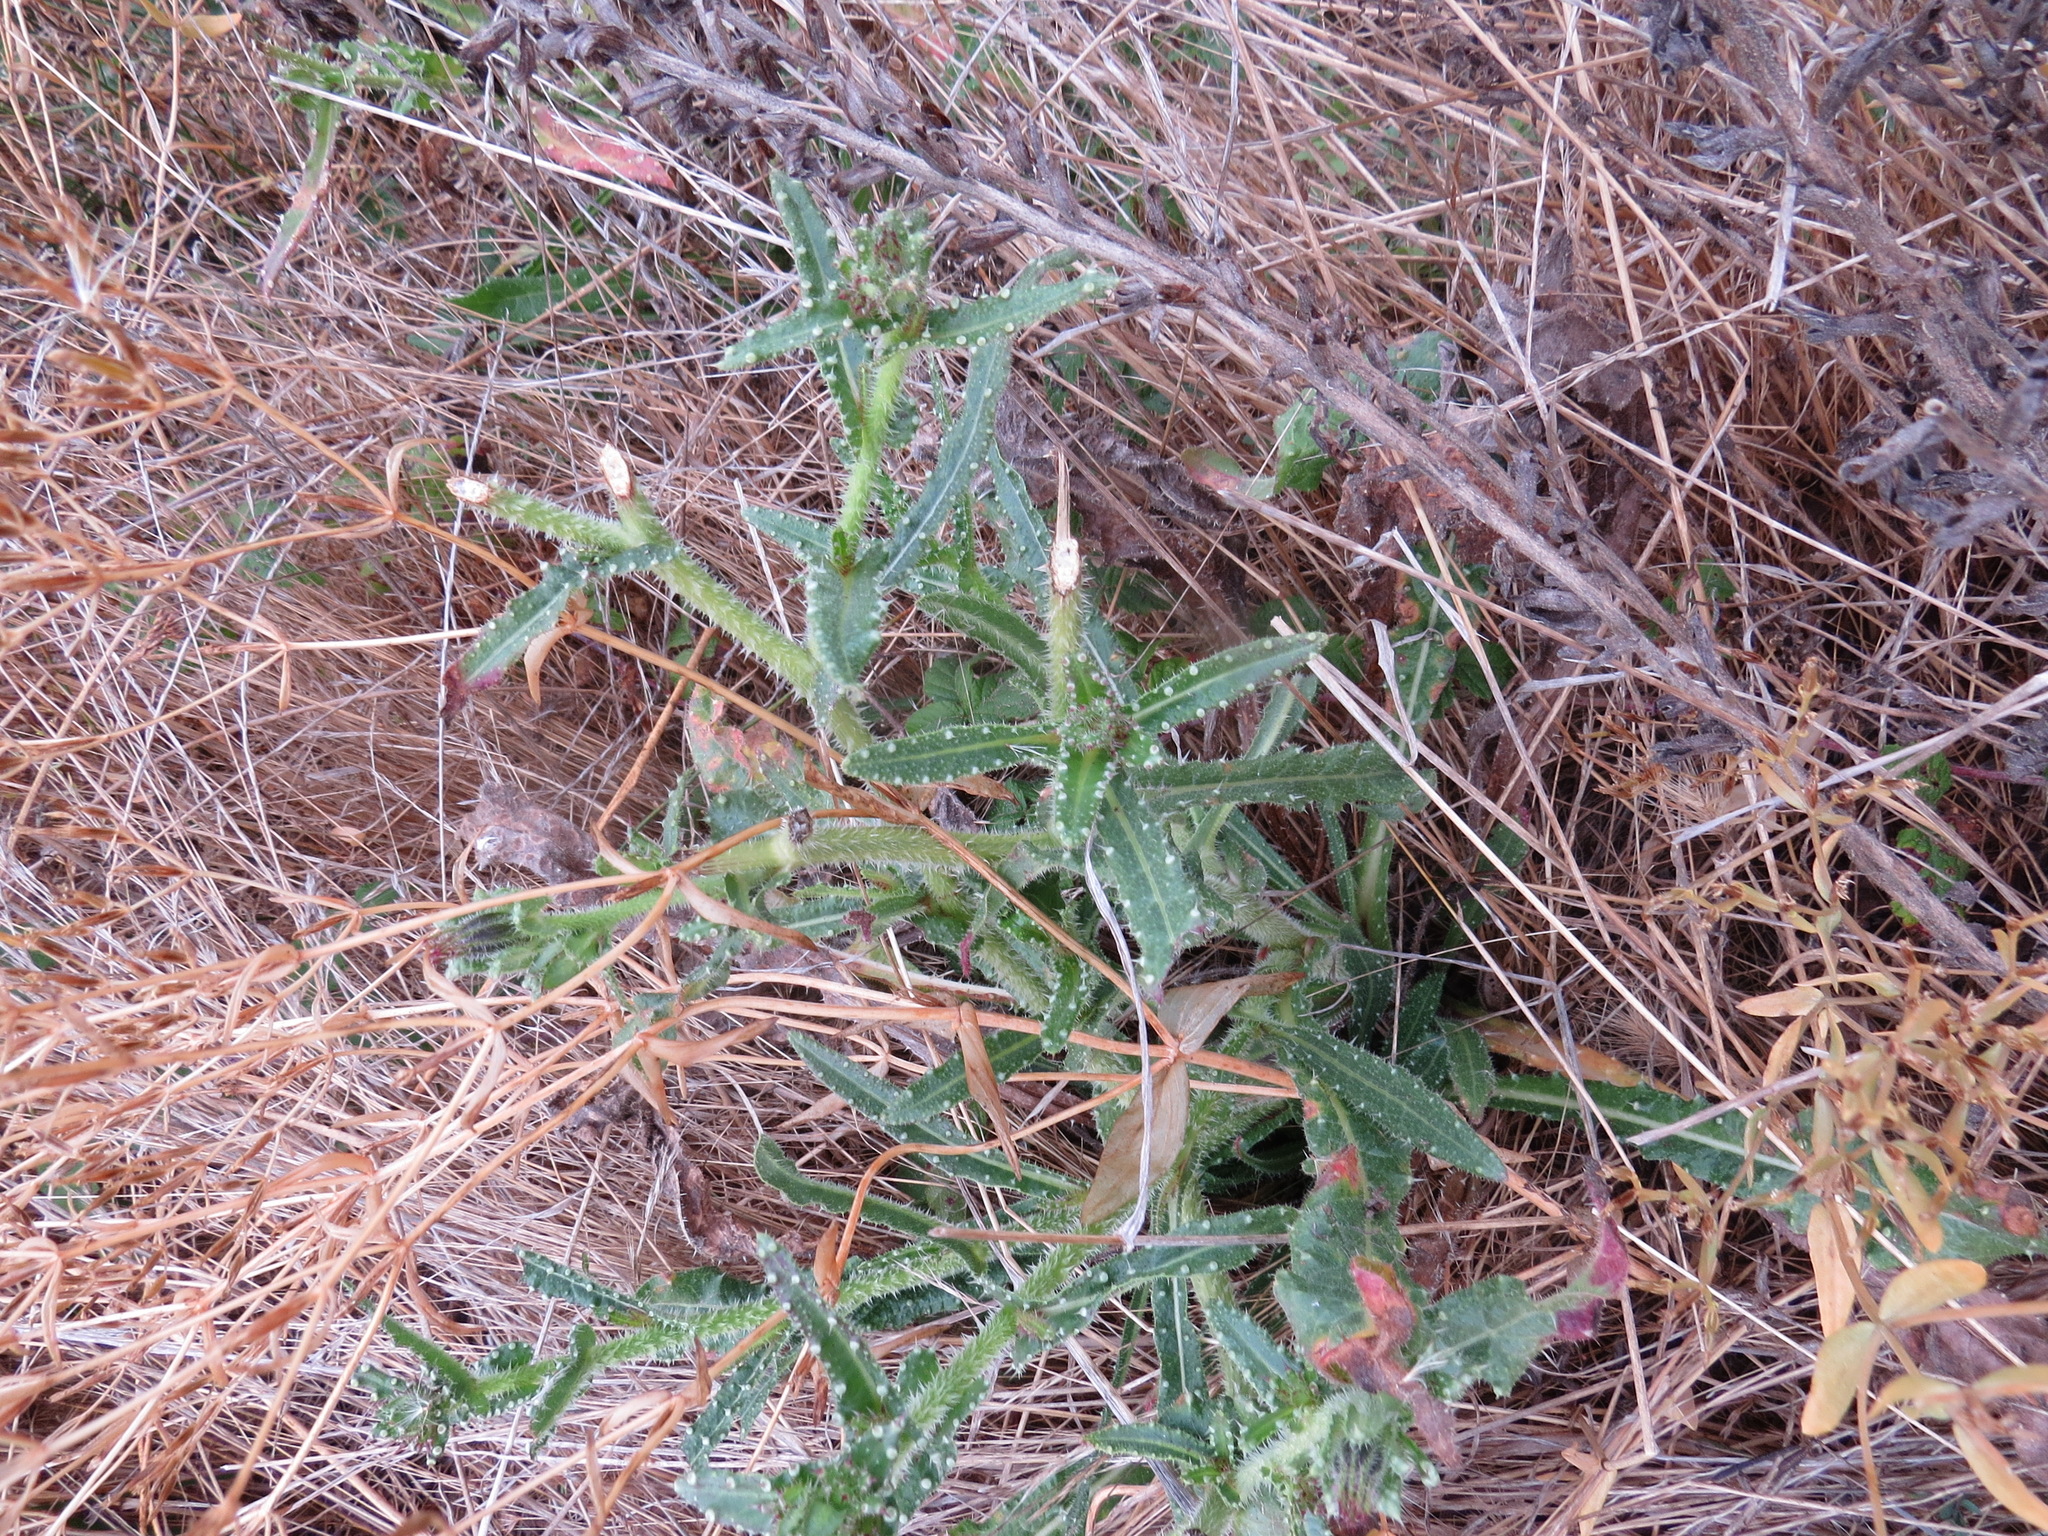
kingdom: Animalia
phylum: Chordata
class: Mammalia
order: Lagomorpha
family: Leporidae
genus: Sylvilagus
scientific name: Sylvilagus bachmani
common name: Brush rabbit
